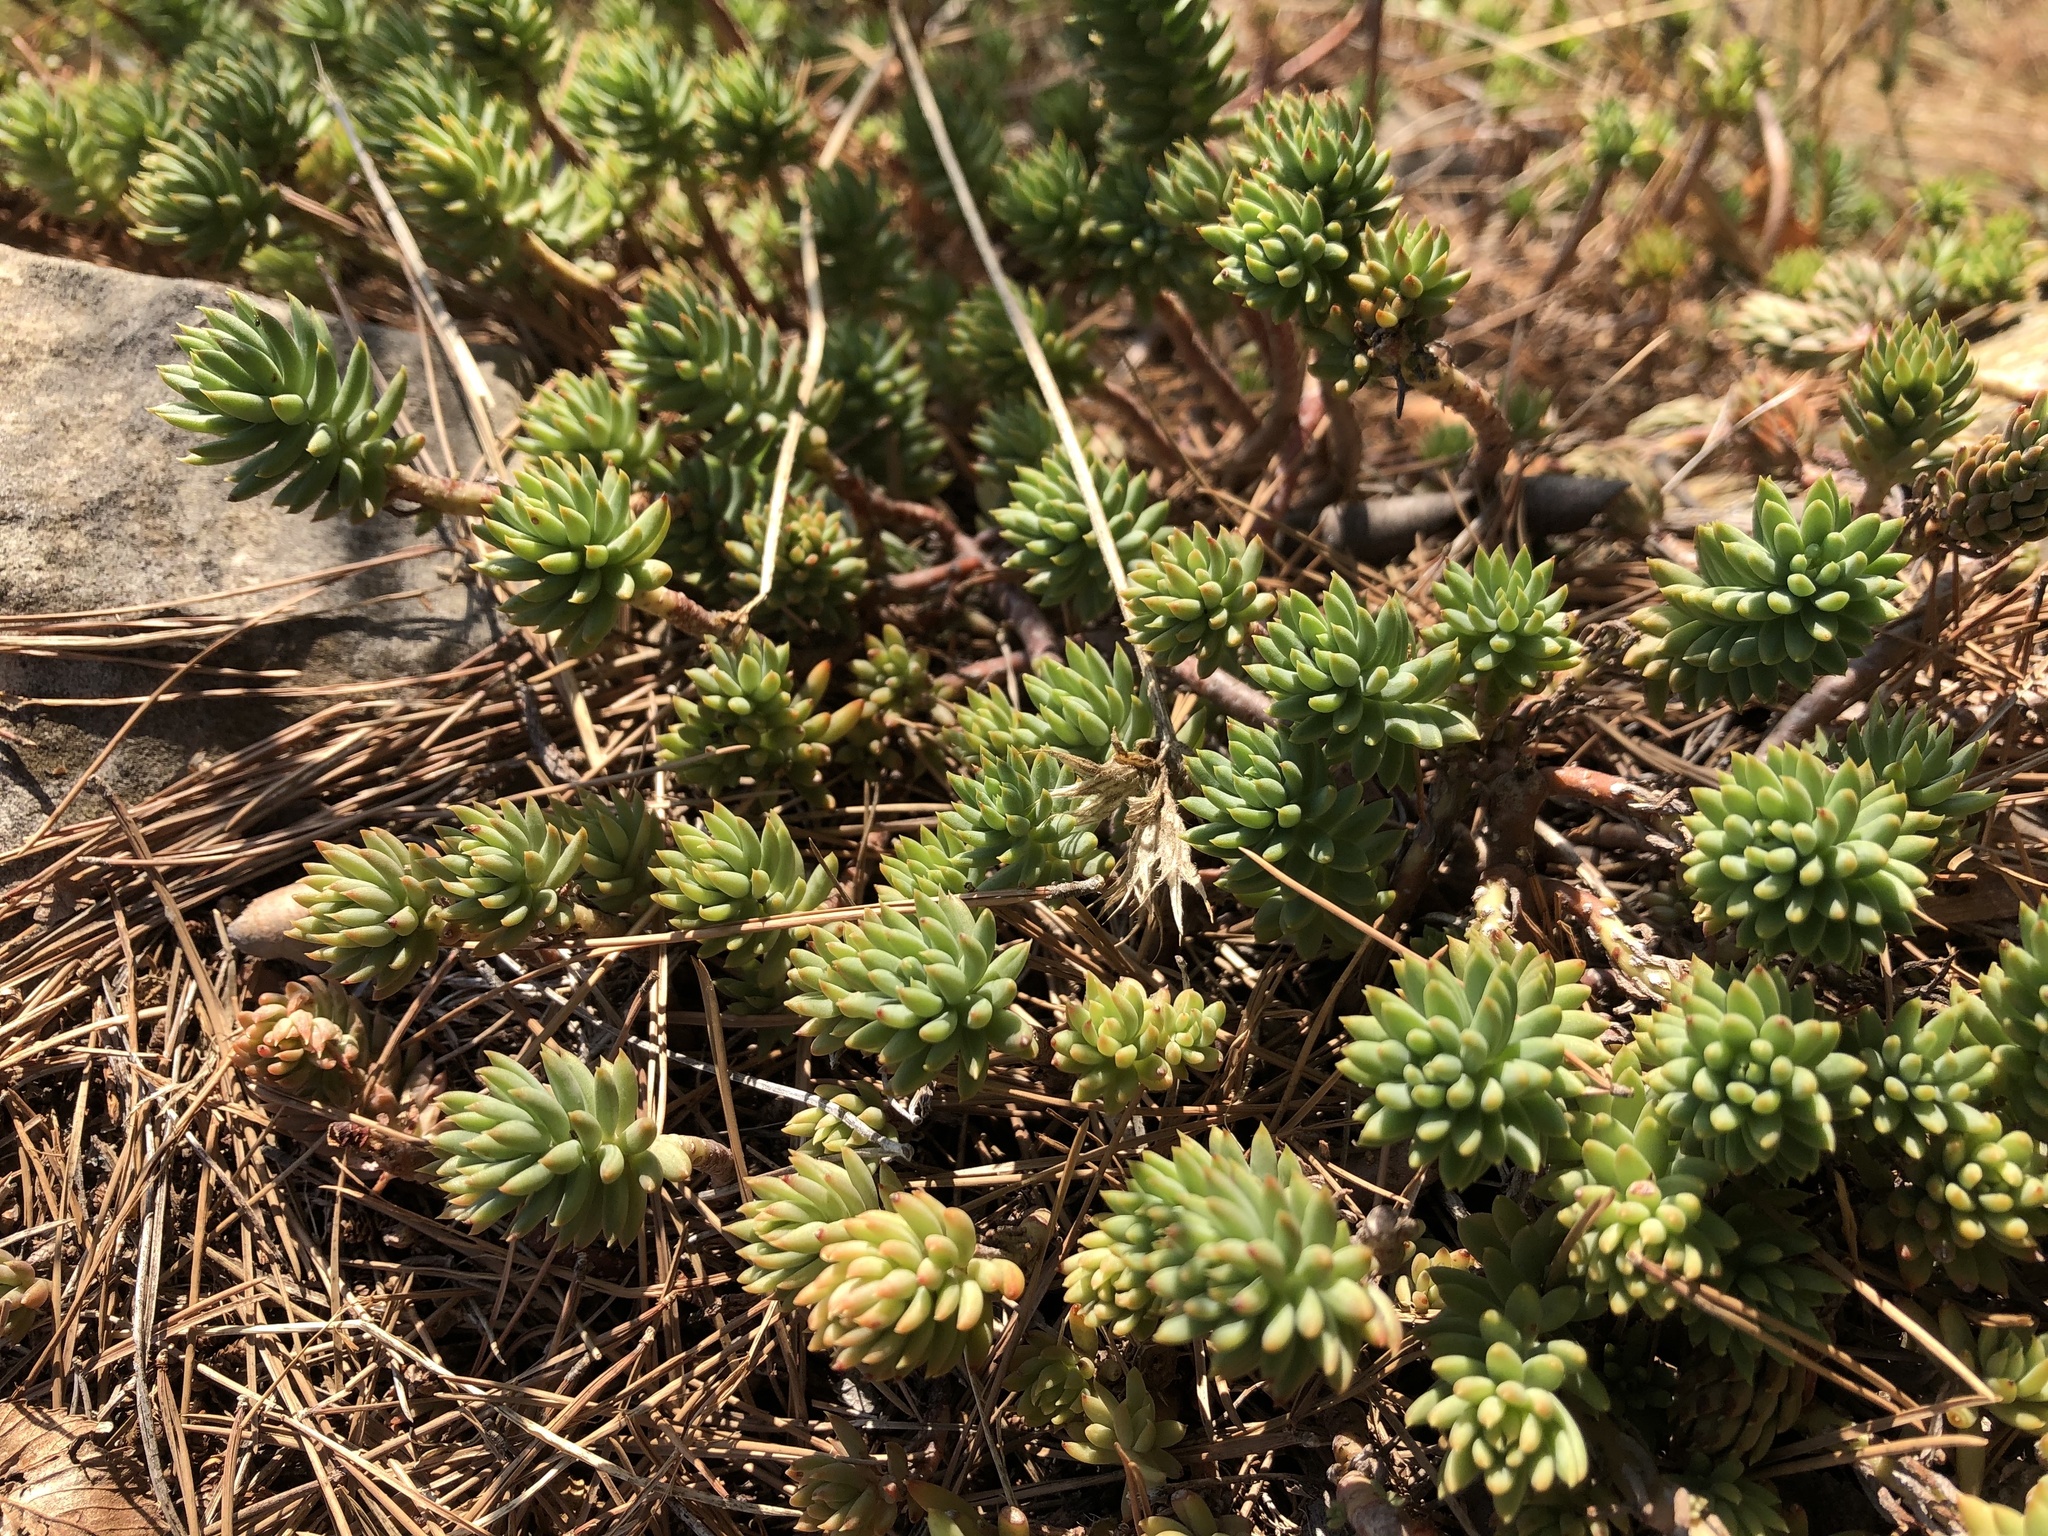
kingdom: Plantae
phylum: Tracheophyta
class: Magnoliopsida
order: Saxifragales
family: Crassulaceae
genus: Petrosedum
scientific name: Petrosedum sediforme
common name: Pale stonecrop
